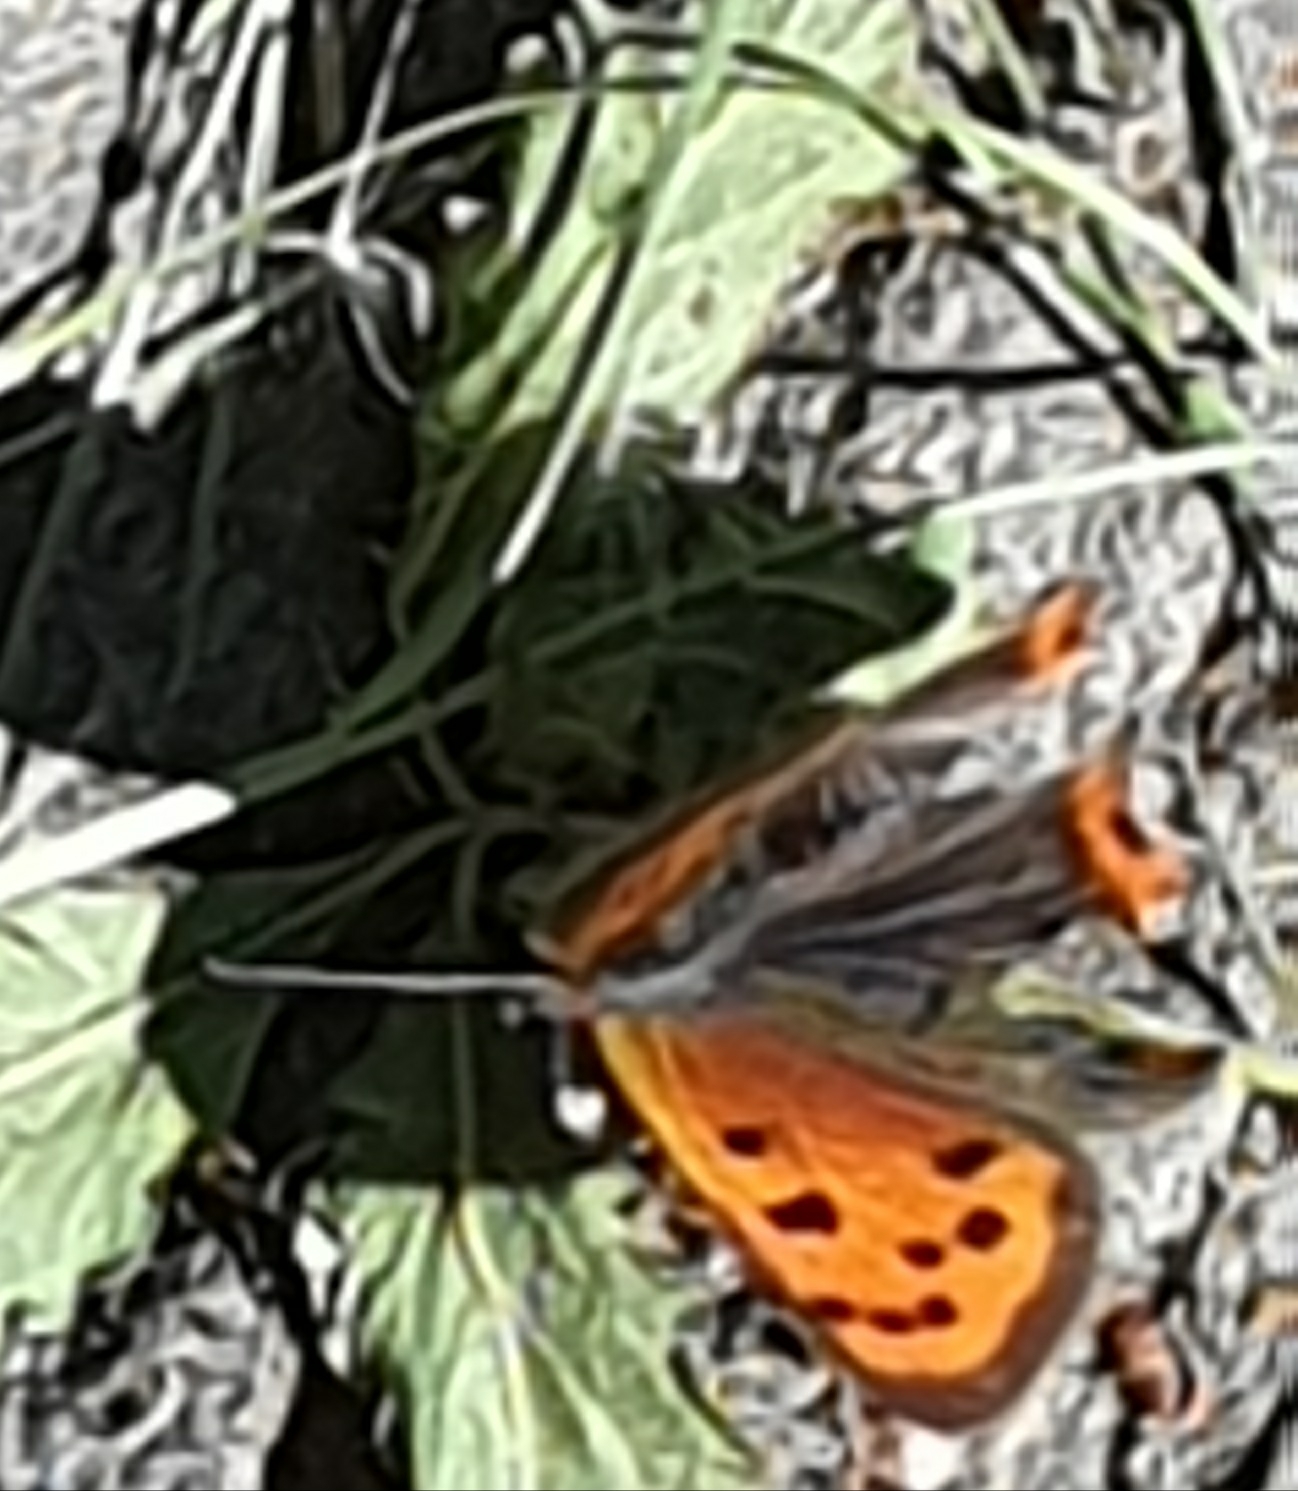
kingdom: Animalia
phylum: Arthropoda
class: Insecta
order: Lepidoptera
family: Lycaenidae
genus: Lycaena
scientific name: Lycaena phlaeas
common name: Small copper
